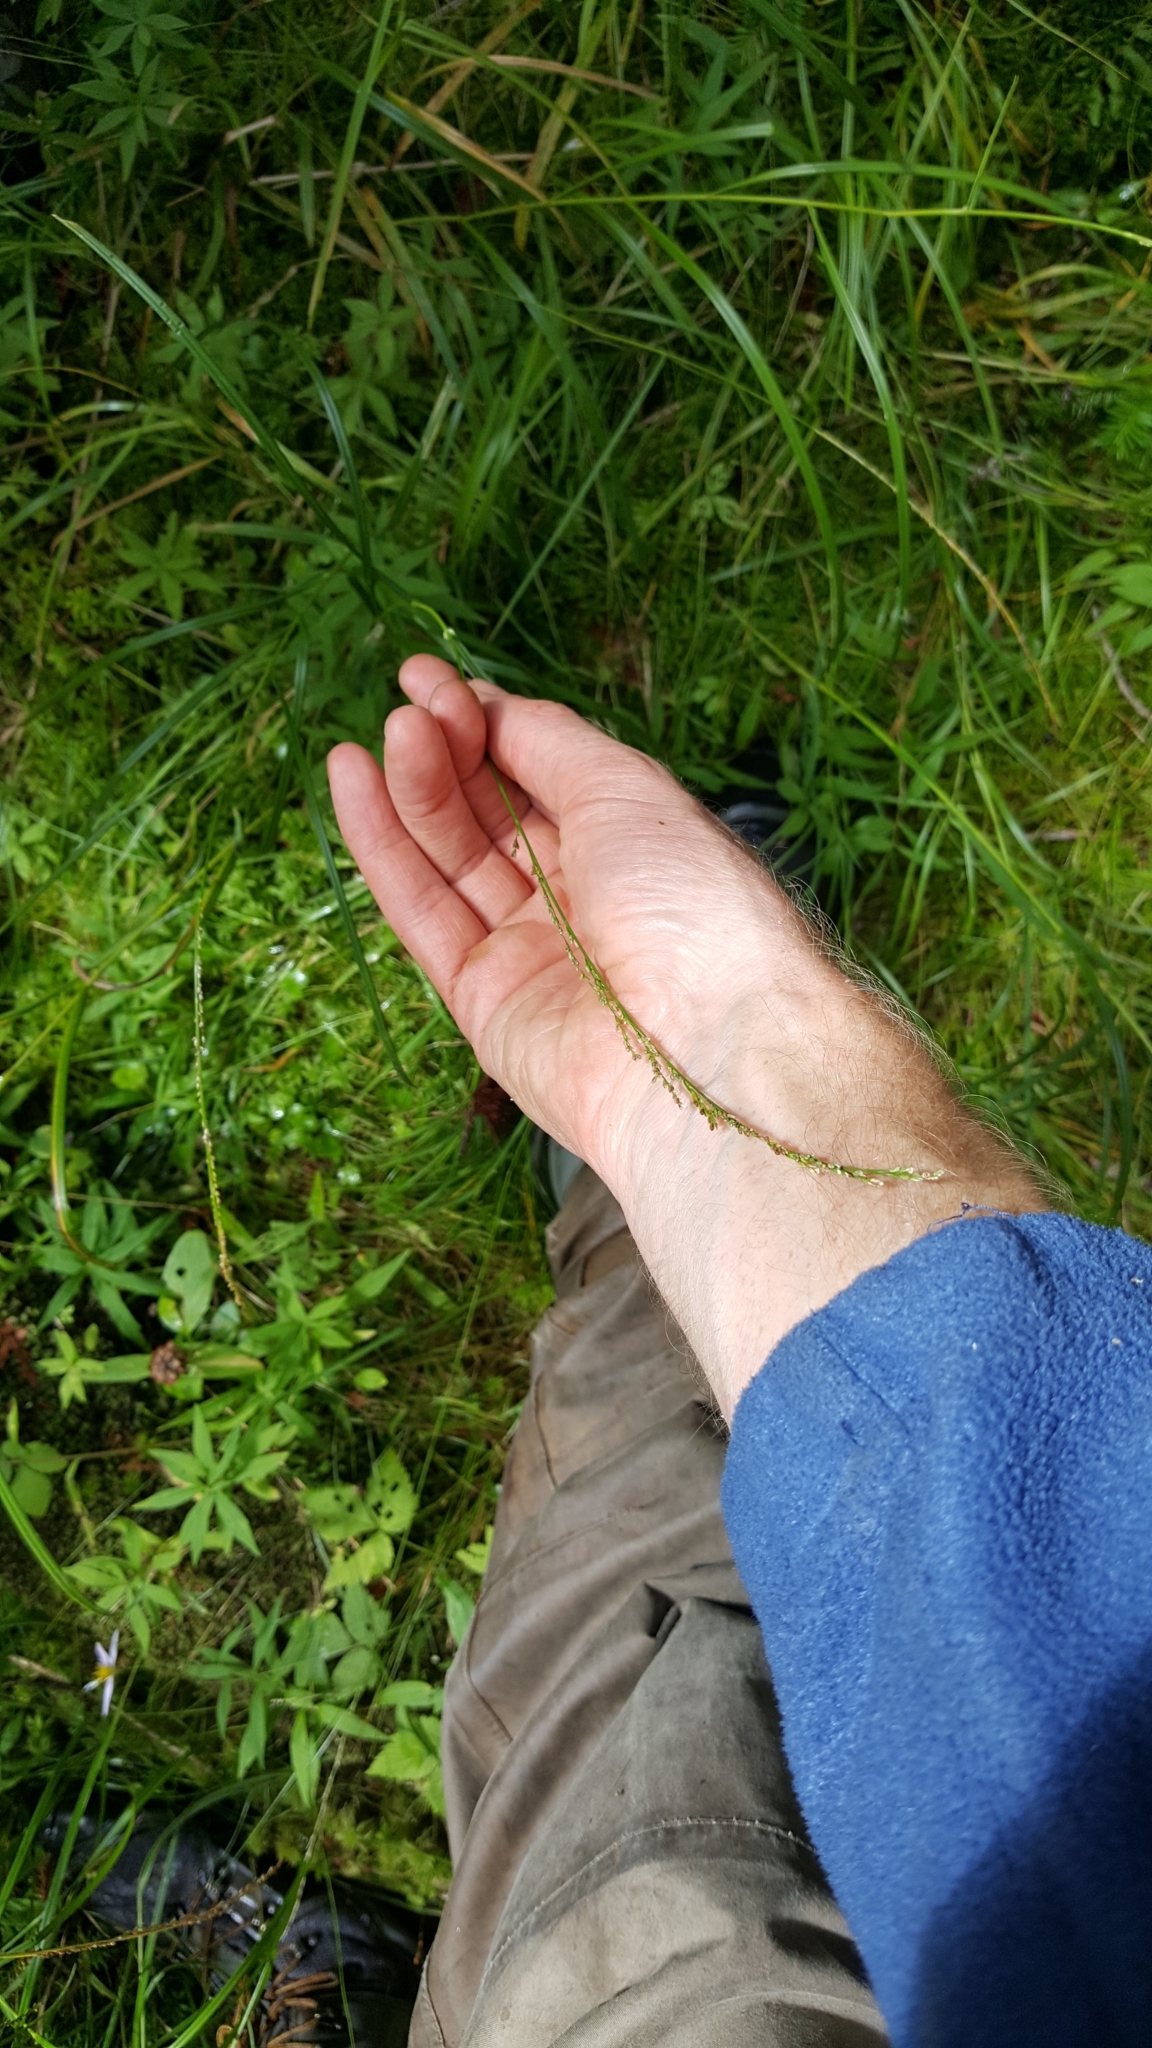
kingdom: Plantae
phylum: Tracheophyta
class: Liliopsida
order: Poales
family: Poaceae
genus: Glyceria
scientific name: Glyceria melicaria
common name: Long mannagrass
